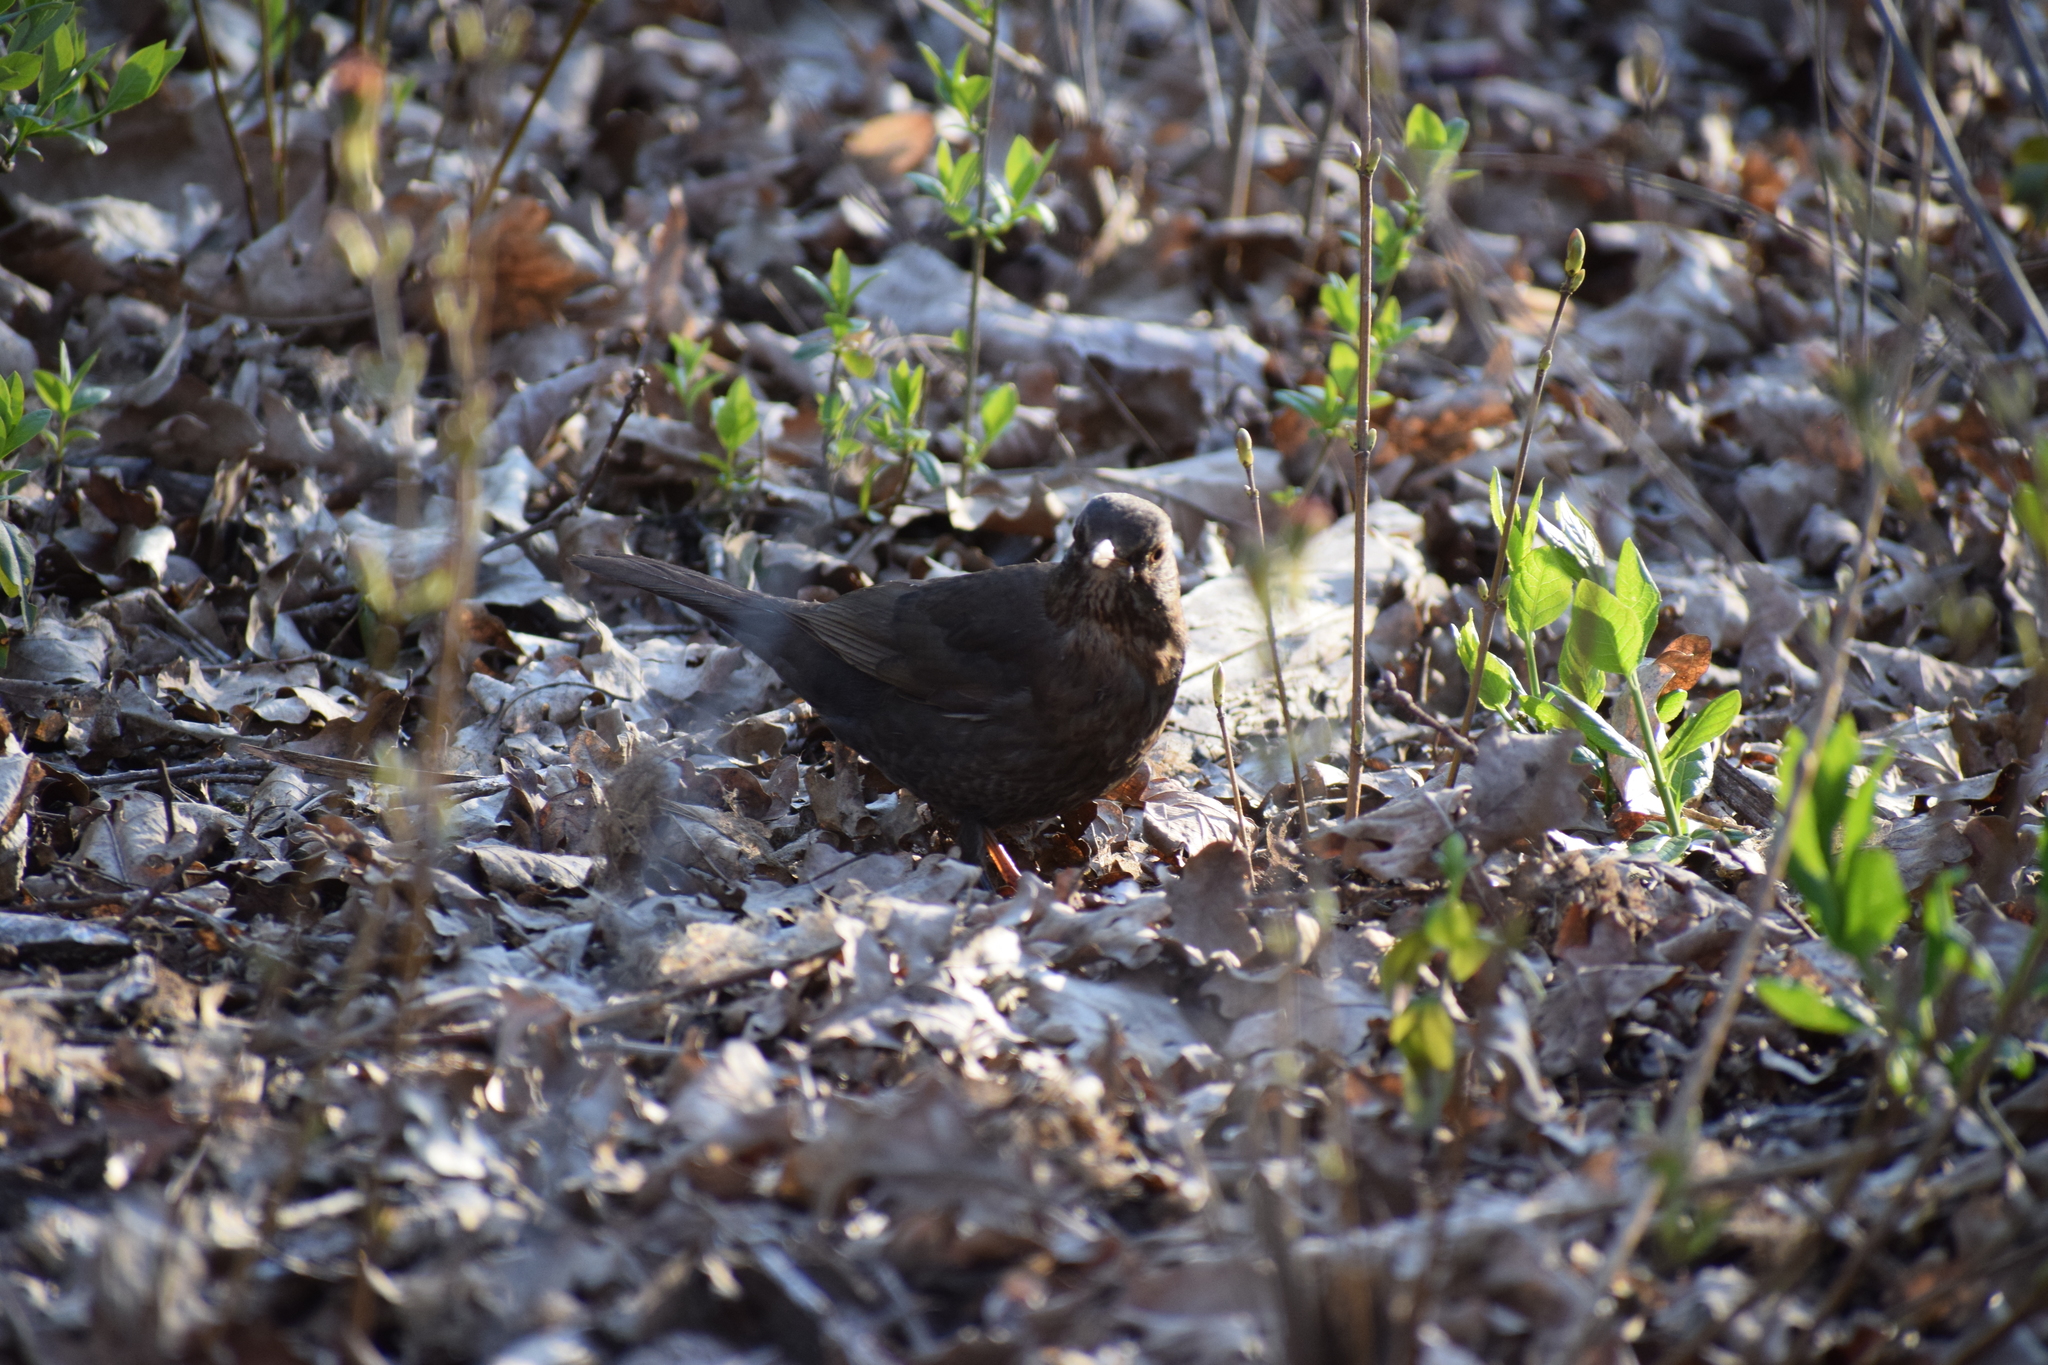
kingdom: Animalia
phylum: Chordata
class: Aves
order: Passeriformes
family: Turdidae
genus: Turdus
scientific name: Turdus merula
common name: Common blackbird
